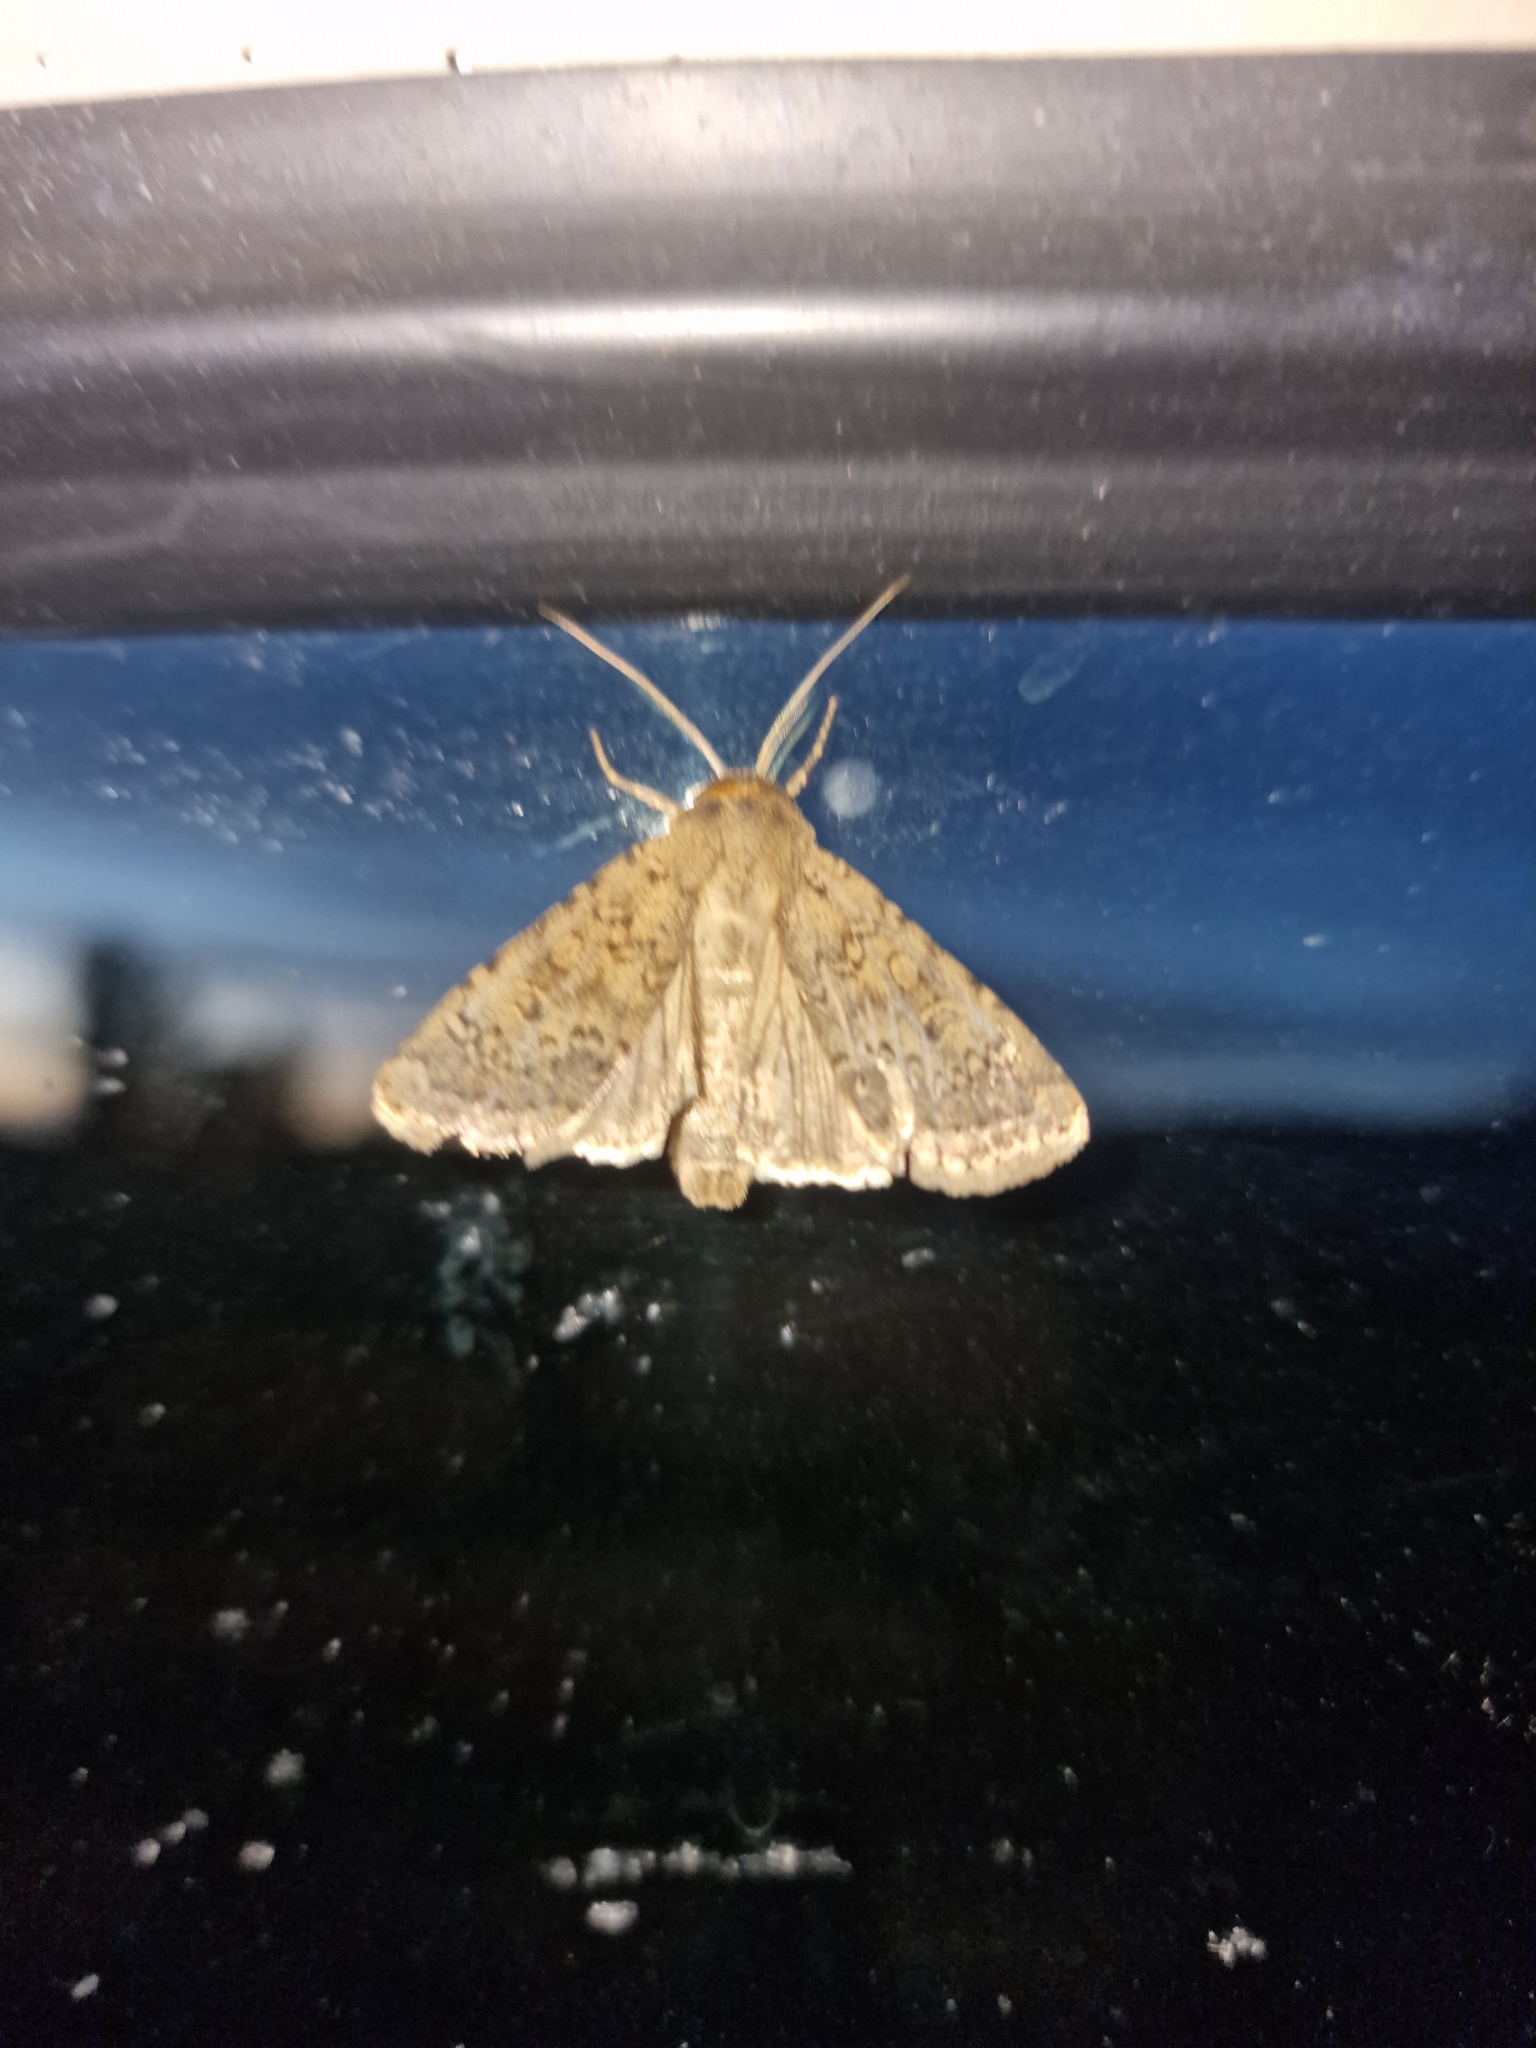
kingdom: Animalia
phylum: Arthropoda
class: Insecta
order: Lepidoptera
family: Noctuidae
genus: Rhyacia
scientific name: Rhyacia simulans
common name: Dotted rustic
